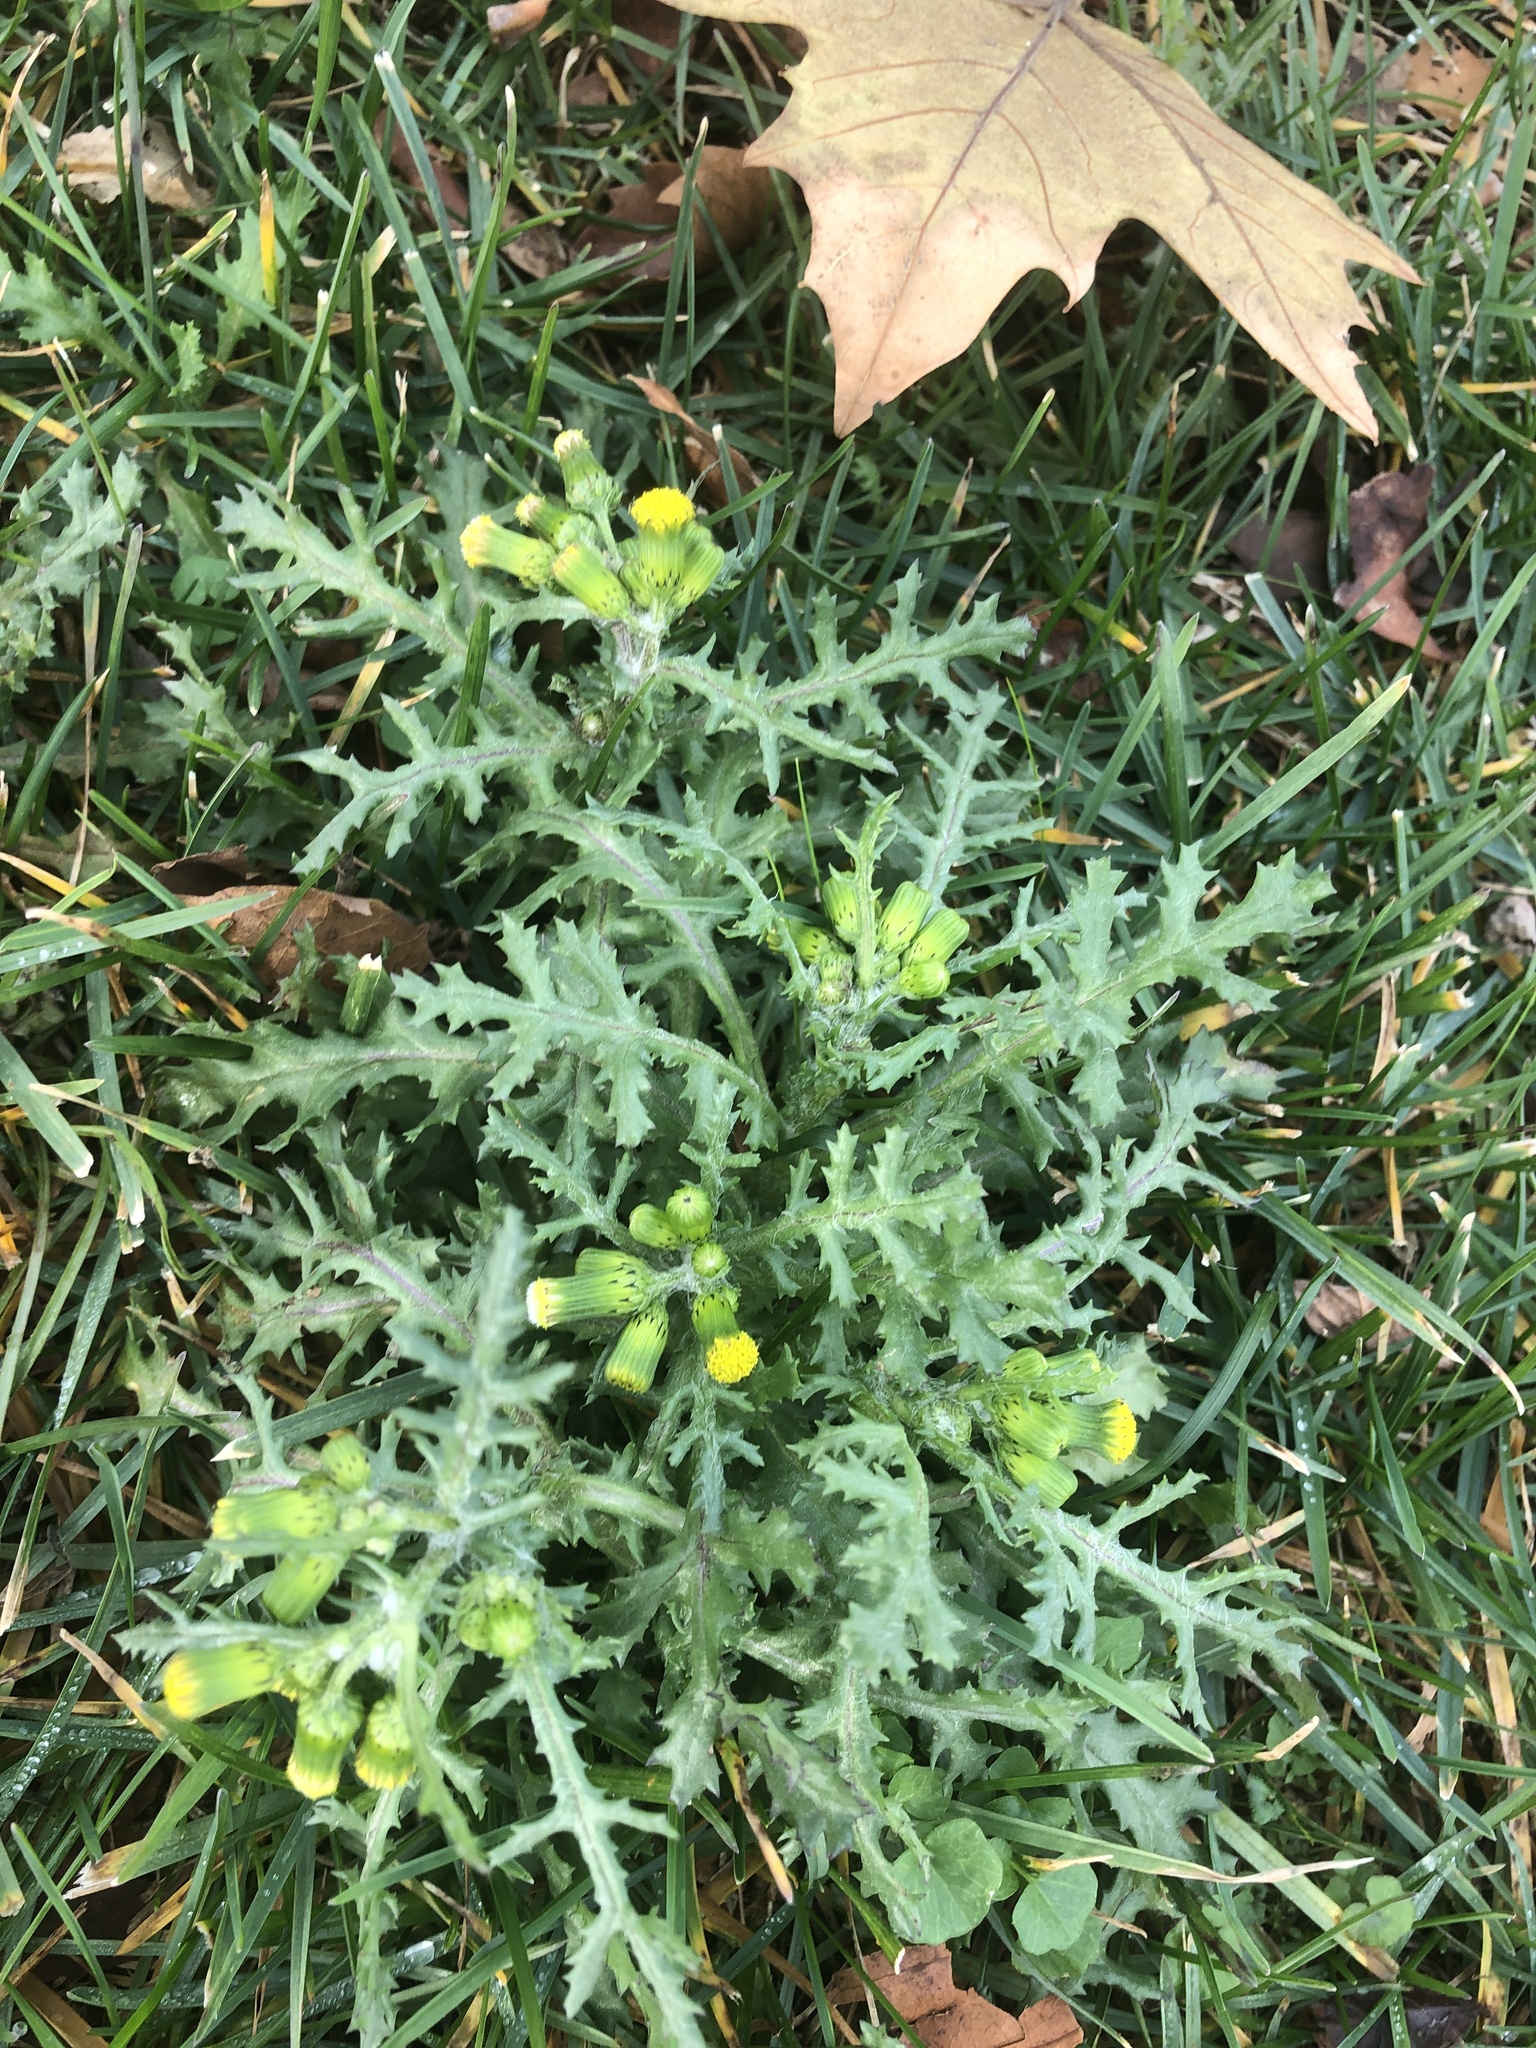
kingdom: Plantae
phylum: Tracheophyta
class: Magnoliopsida
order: Asterales
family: Asteraceae
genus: Senecio
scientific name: Senecio vulgaris
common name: Old-man-in-the-spring
